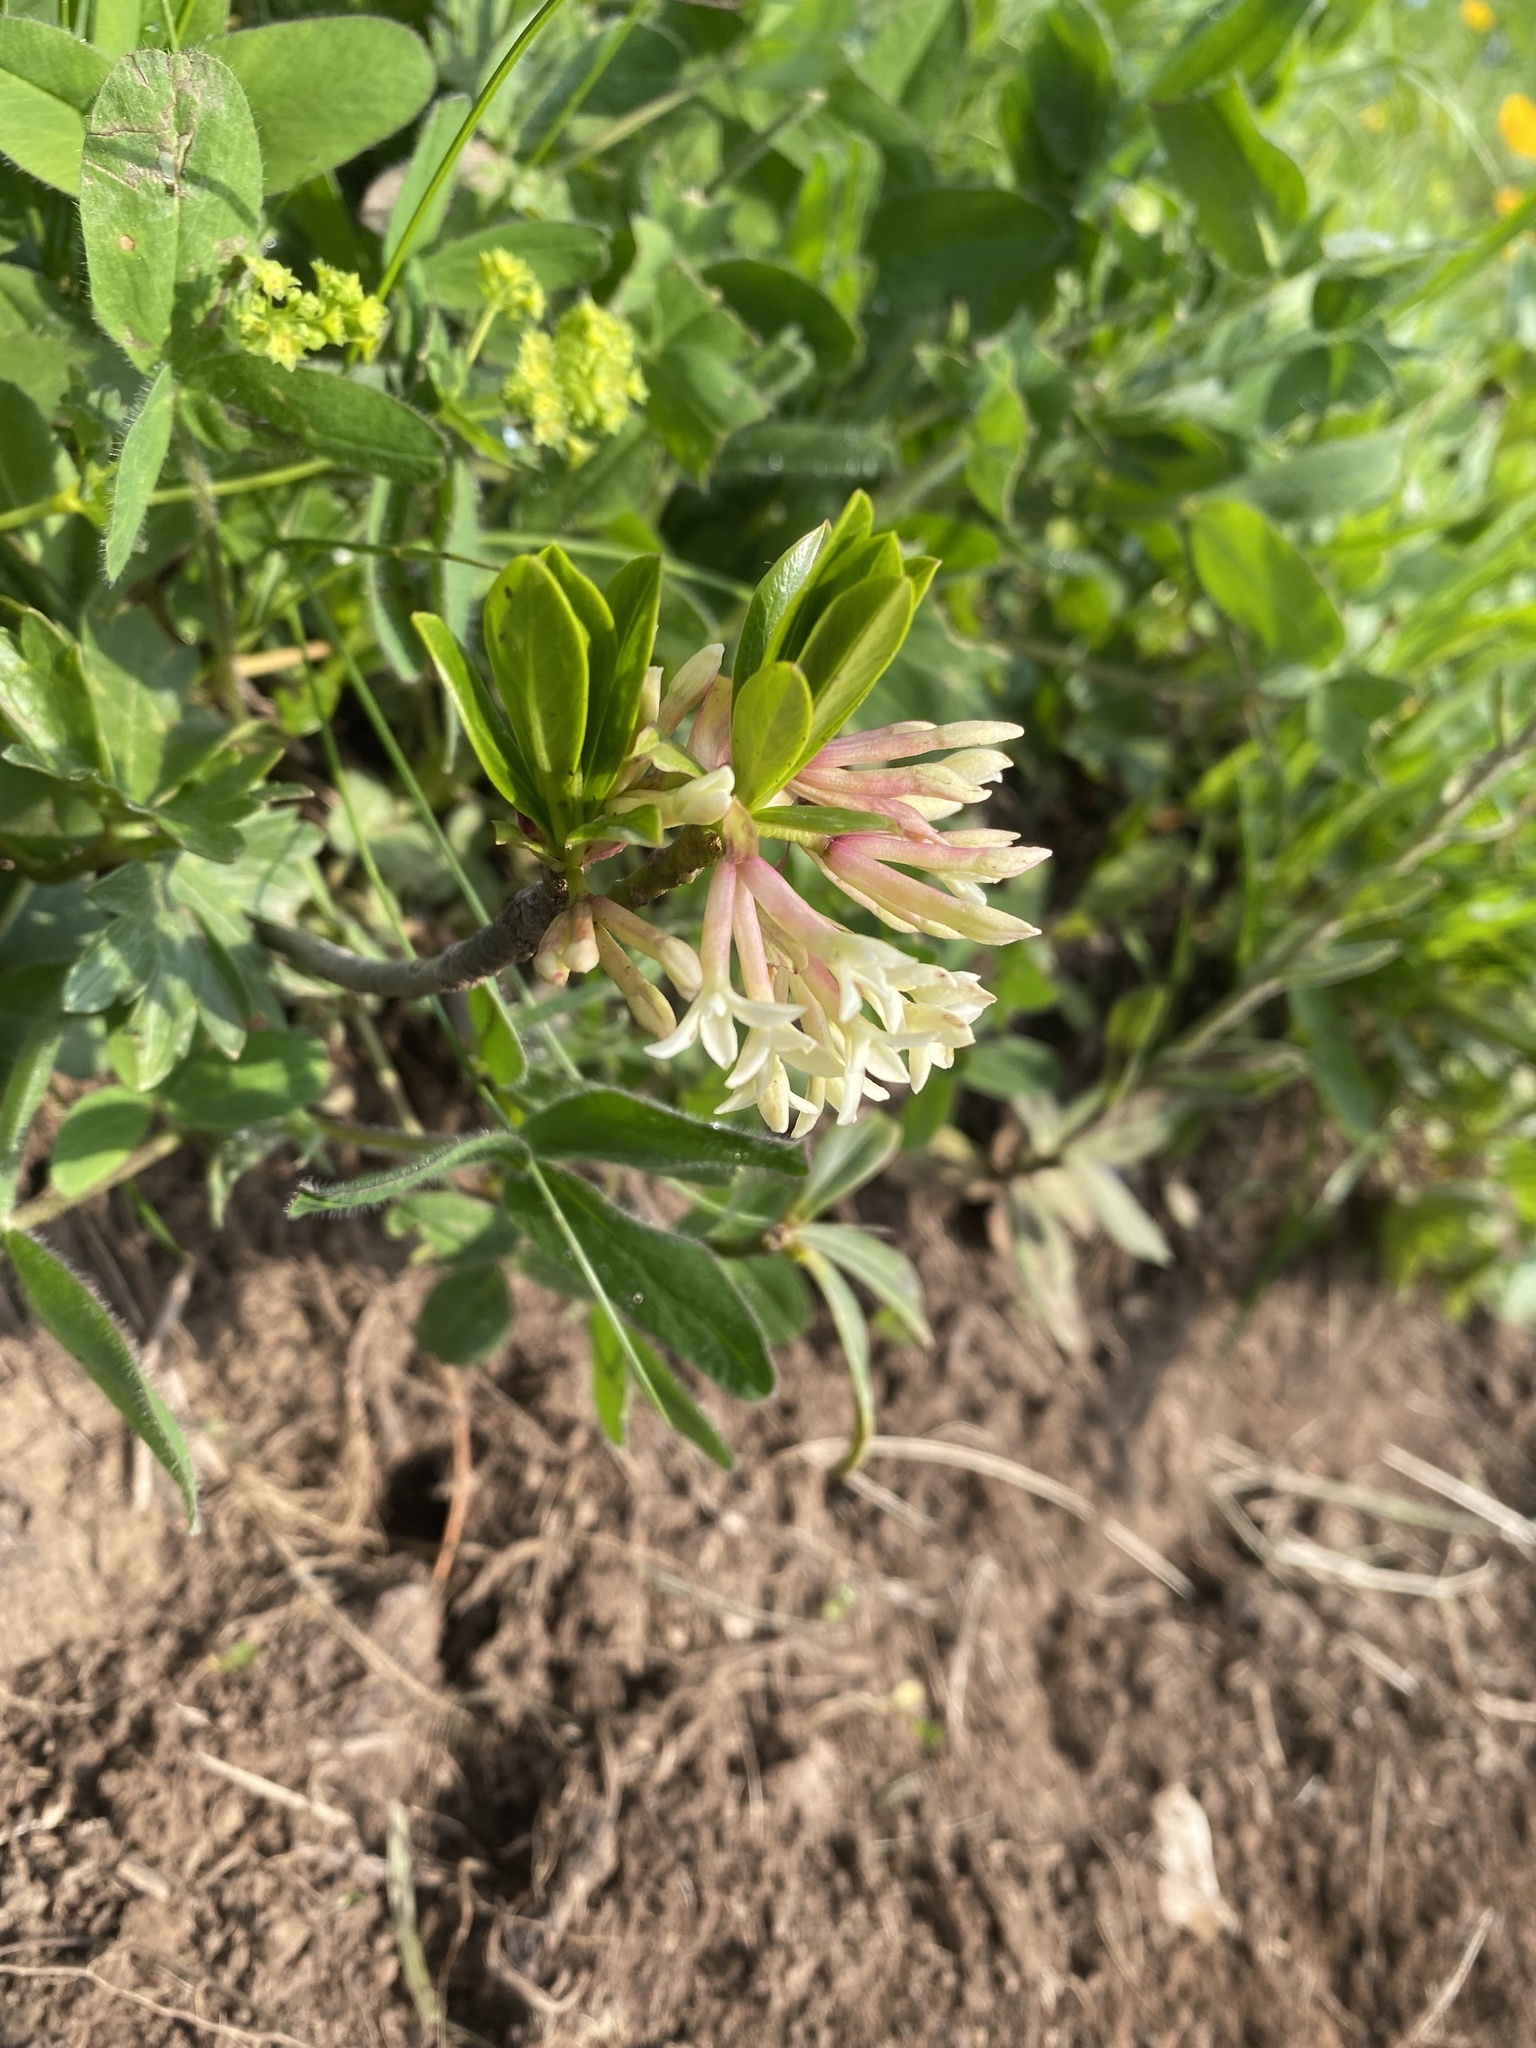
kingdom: Plantae
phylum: Tracheophyta
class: Magnoliopsida
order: Malvales
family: Thymelaeaceae
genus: Daphne
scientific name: Daphne glomerata
